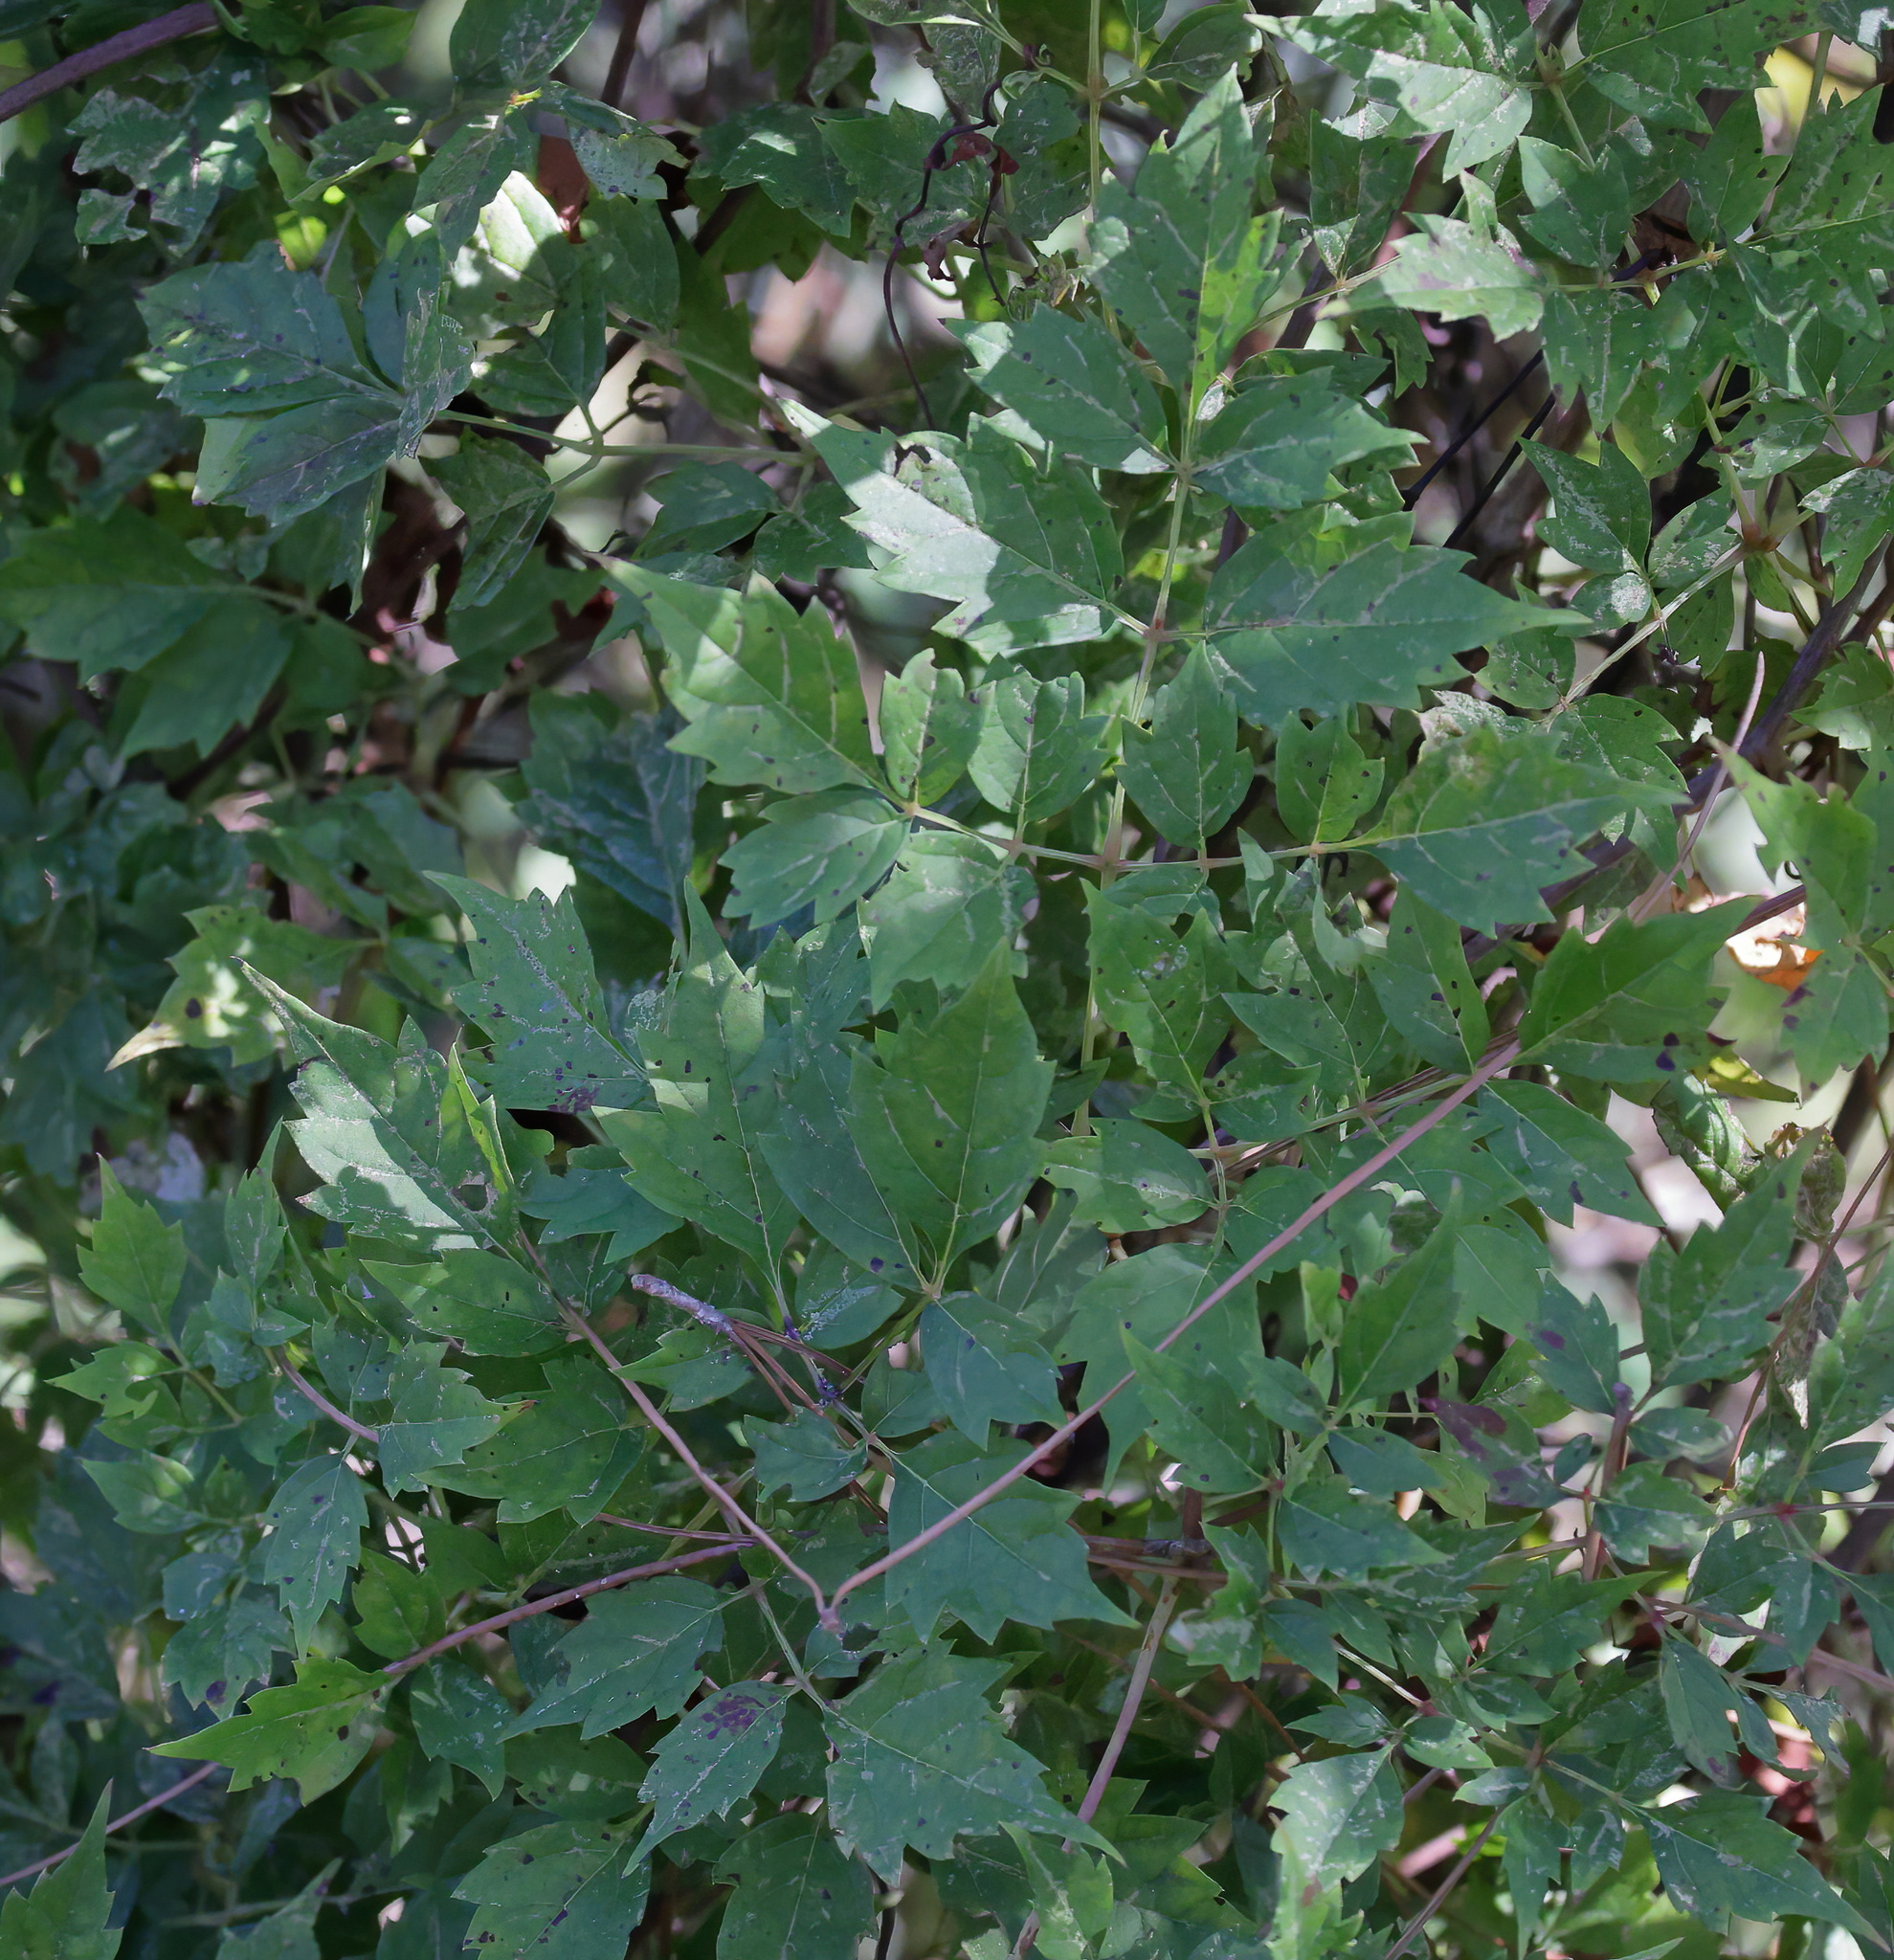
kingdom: Plantae
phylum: Tracheophyta
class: Magnoliopsida
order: Vitales
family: Vitaceae
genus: Nekemias
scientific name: Nekemias arborea
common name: Peppervine
